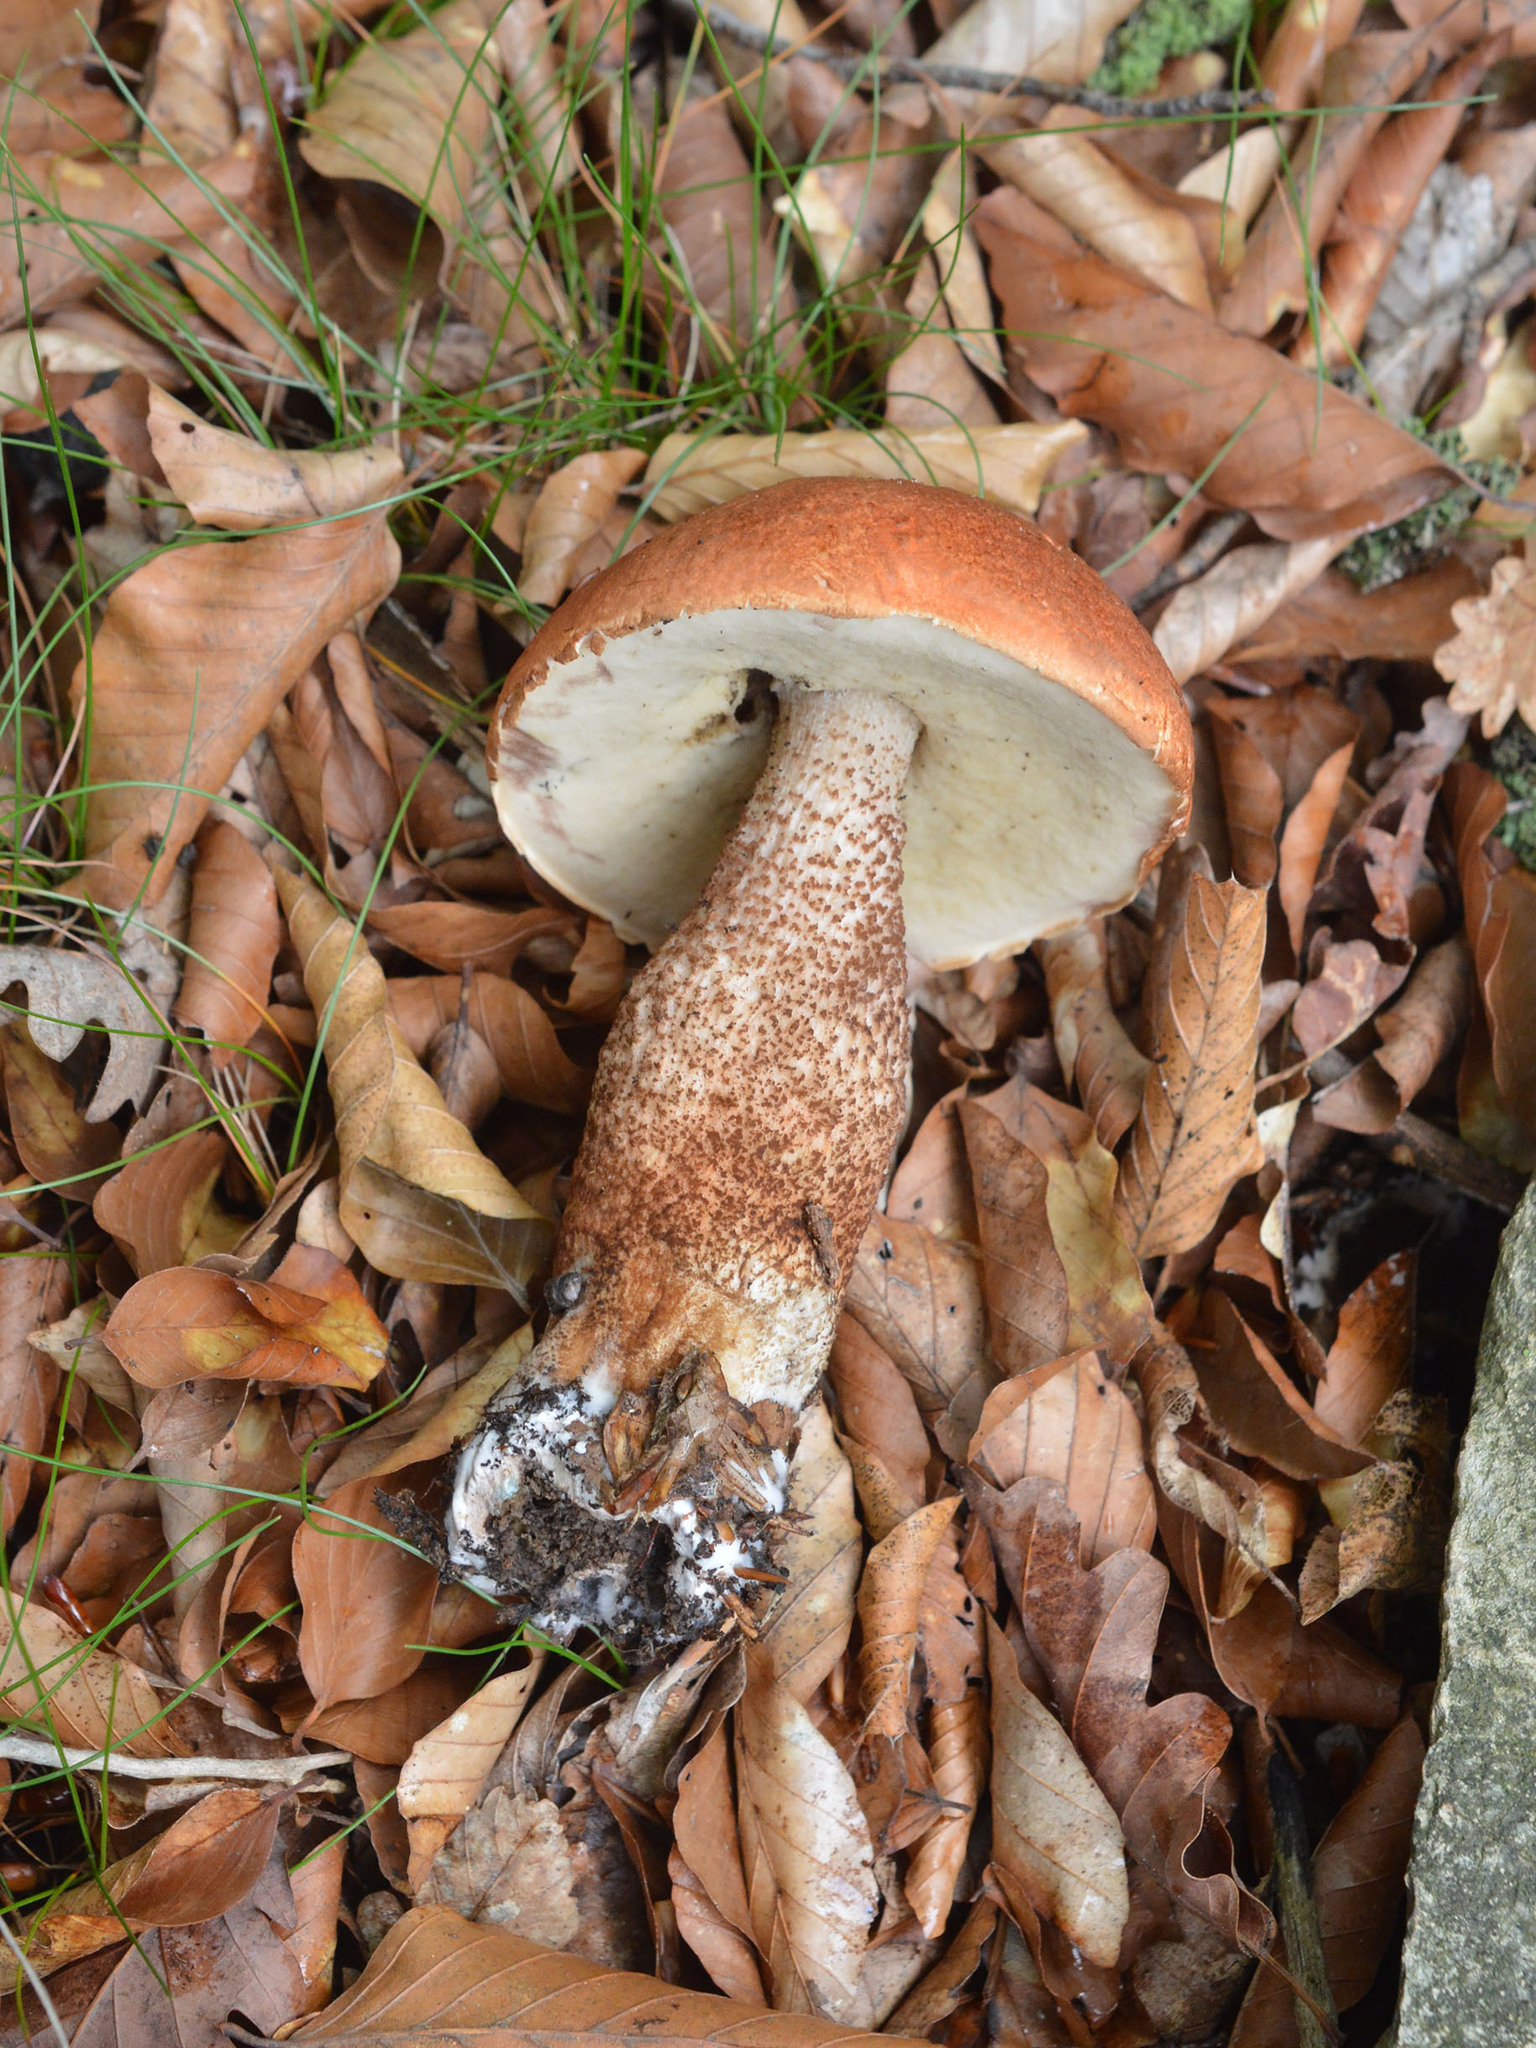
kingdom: Fungi
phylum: Basidiomycota
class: Agaricomycetes
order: Boletales
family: Boletaceae
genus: Leccinum
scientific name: Leccinum aurantiacum
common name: Orange bolete
